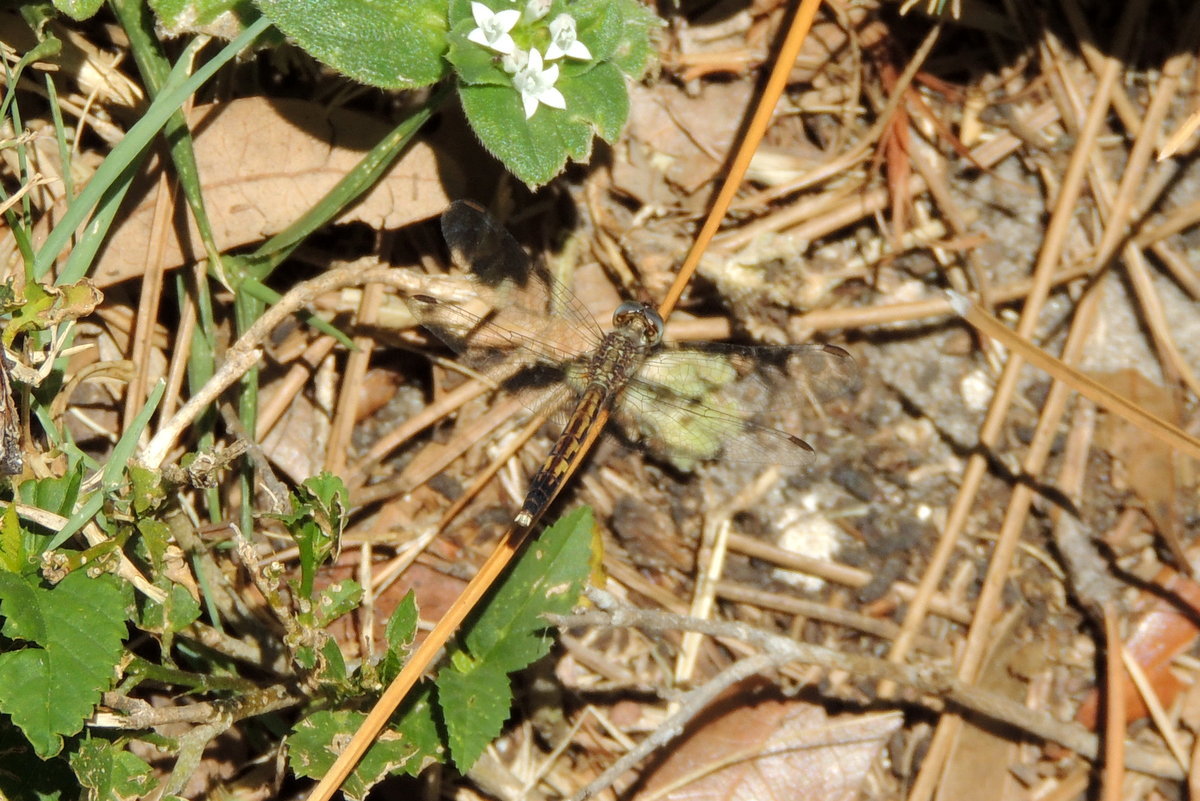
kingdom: Animalia
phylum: Arthropoda
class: Insecta
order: Odonata
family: Libellulidae
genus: Erythrodiplax
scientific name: Erythrodiplax minuscula
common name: Little blue dragonlet
